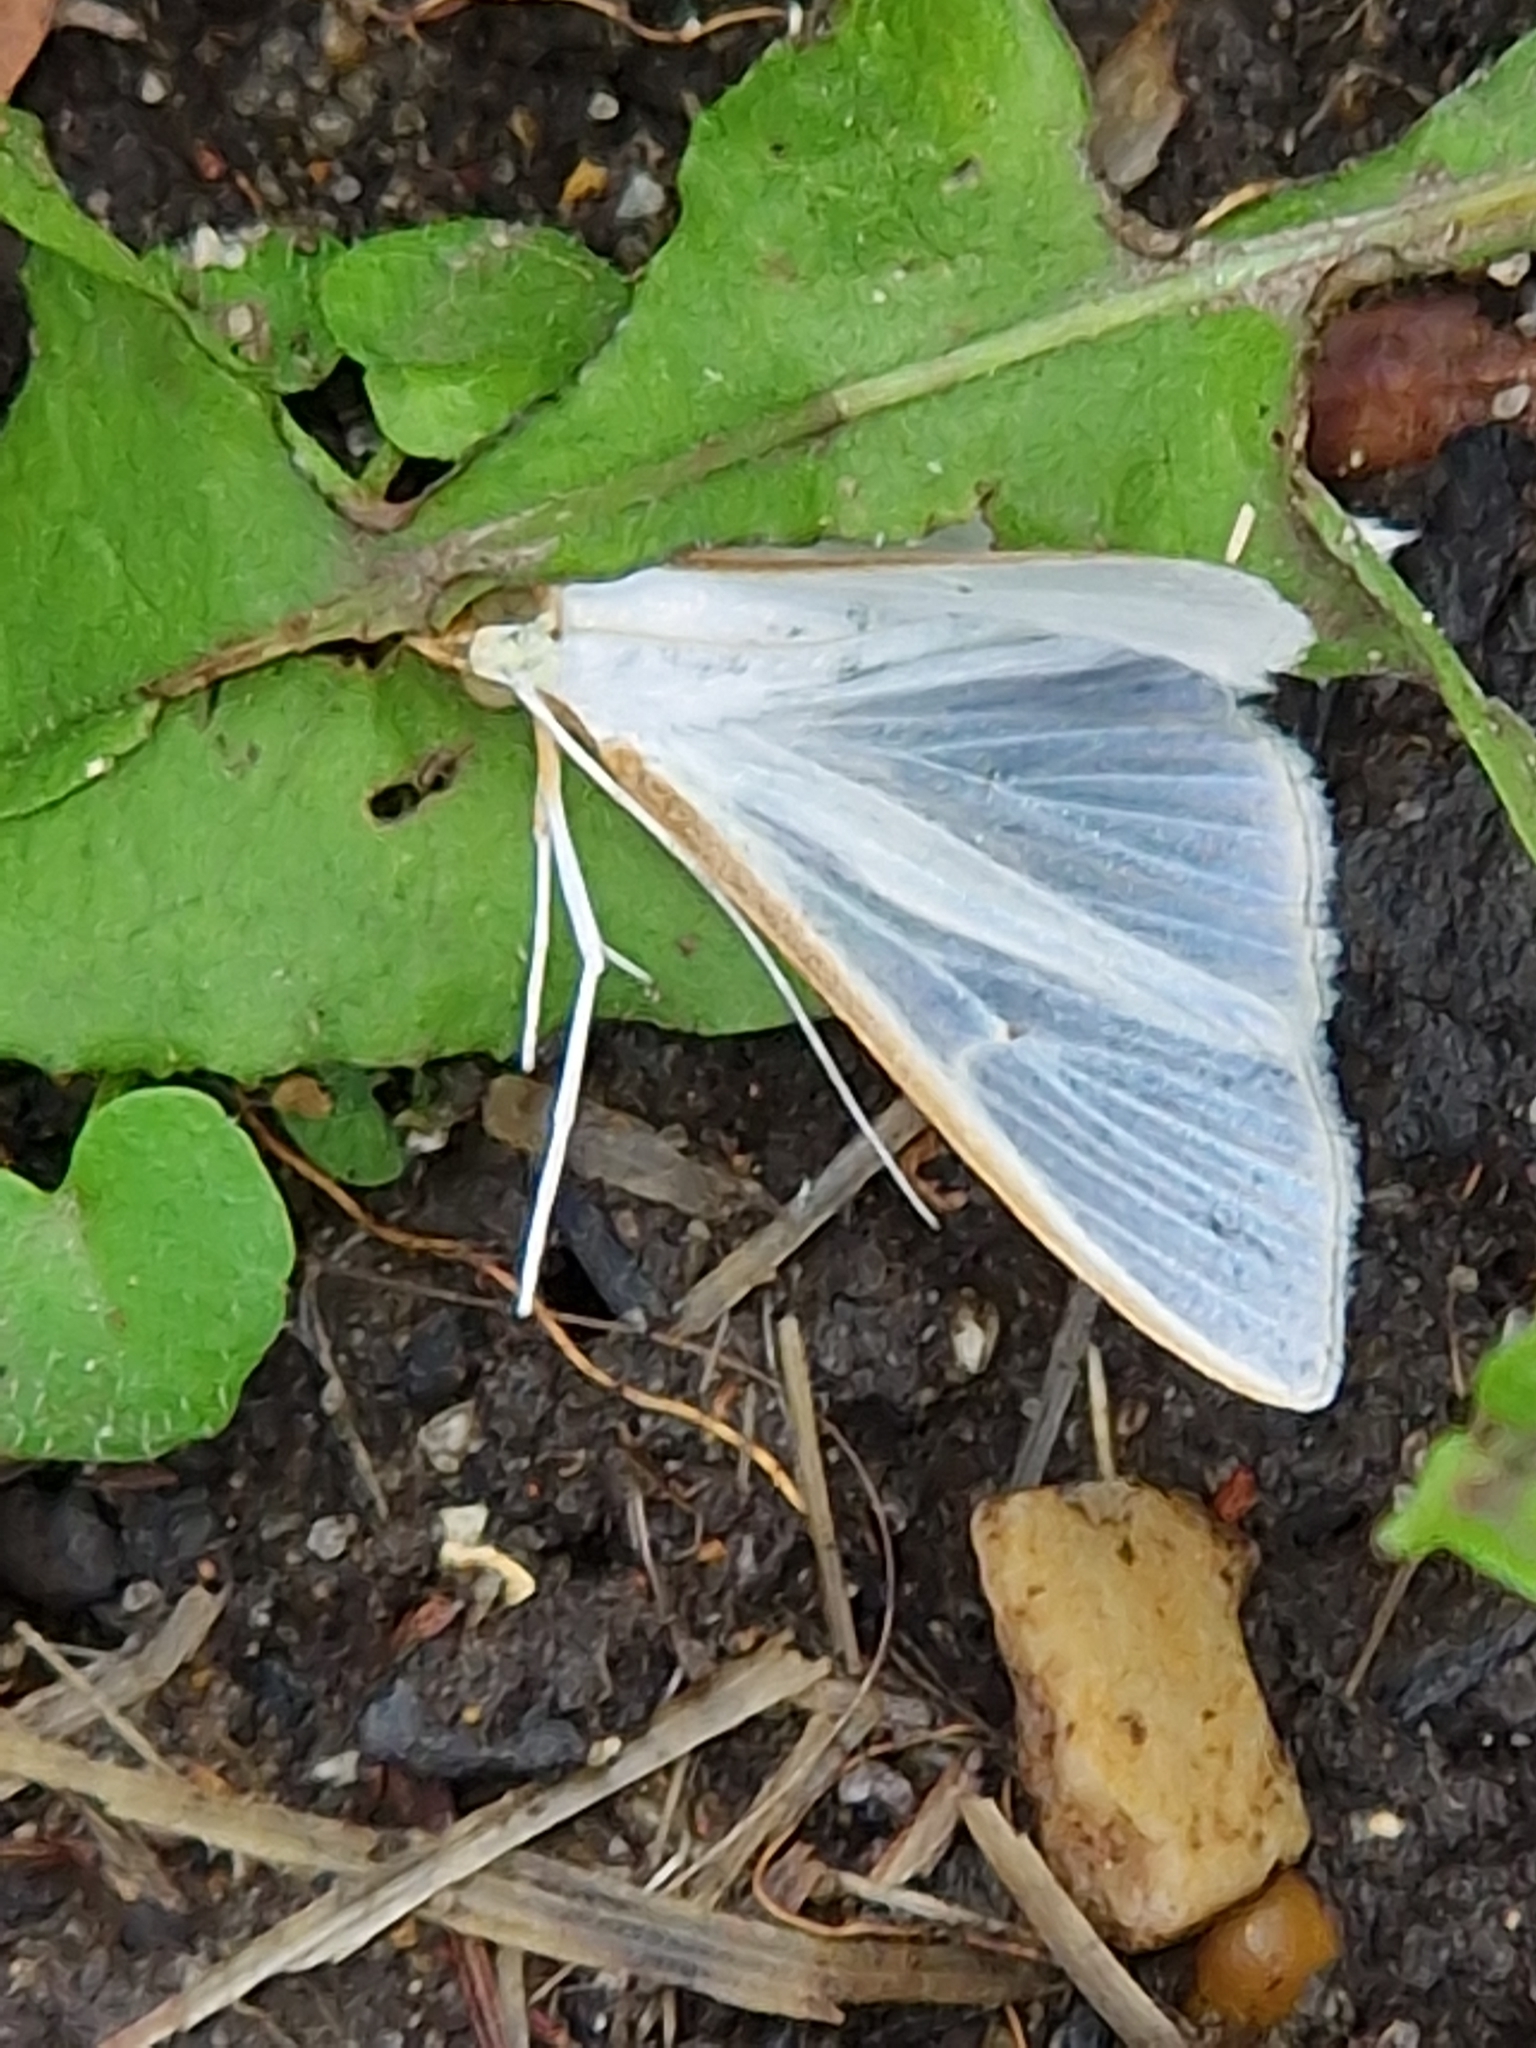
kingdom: Animalia
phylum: Arthropoda
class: Insecta
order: Lepidoptera
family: Crambidae
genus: Palpita
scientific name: Palpita vitrealis
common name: Olive-tree pearl
